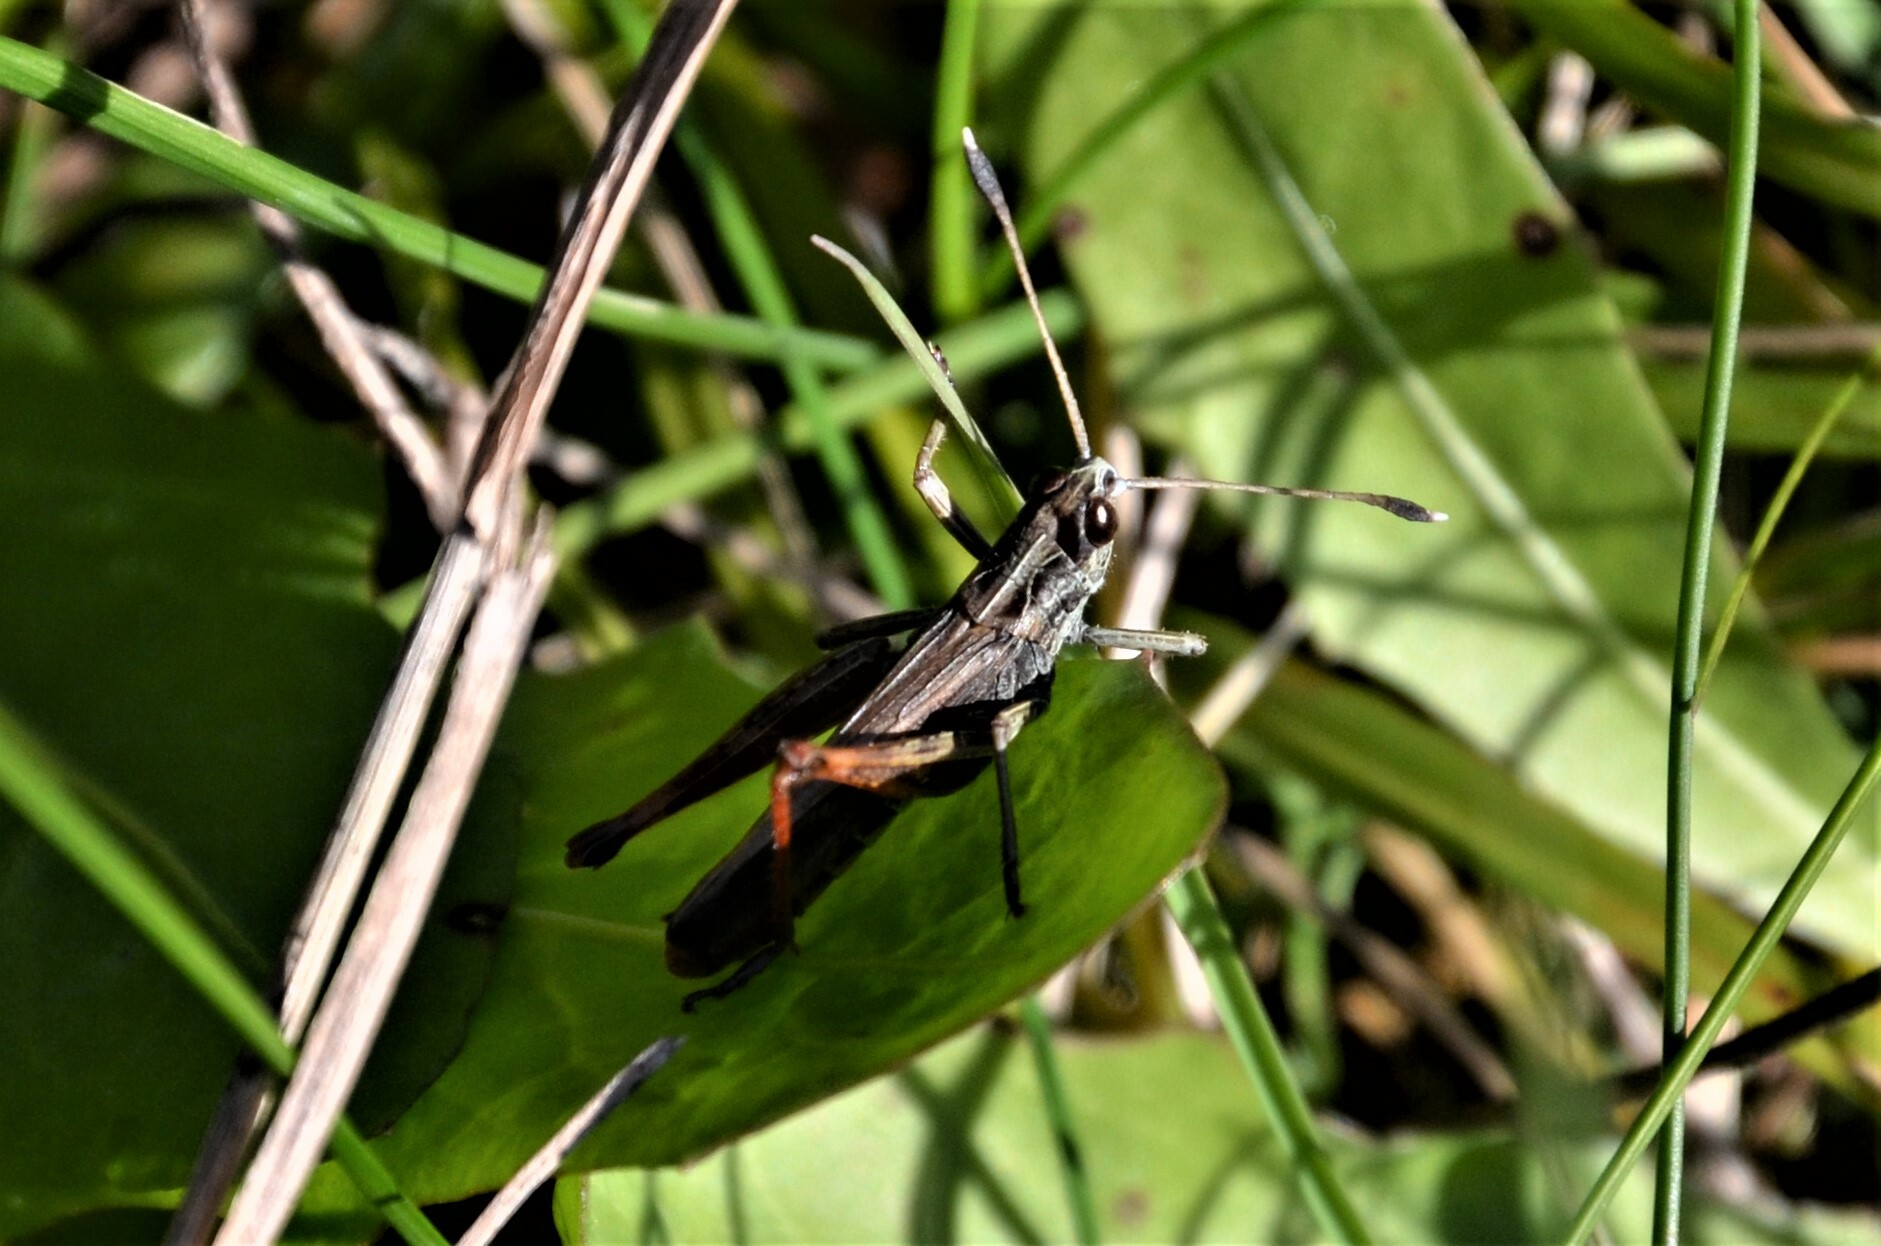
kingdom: Animalia
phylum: Arthropoda
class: Insecta
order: Orthoptera
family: Acrididae
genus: Gomphocerippus
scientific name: Gomphocerippus rufus
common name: Rufous grasshopper
